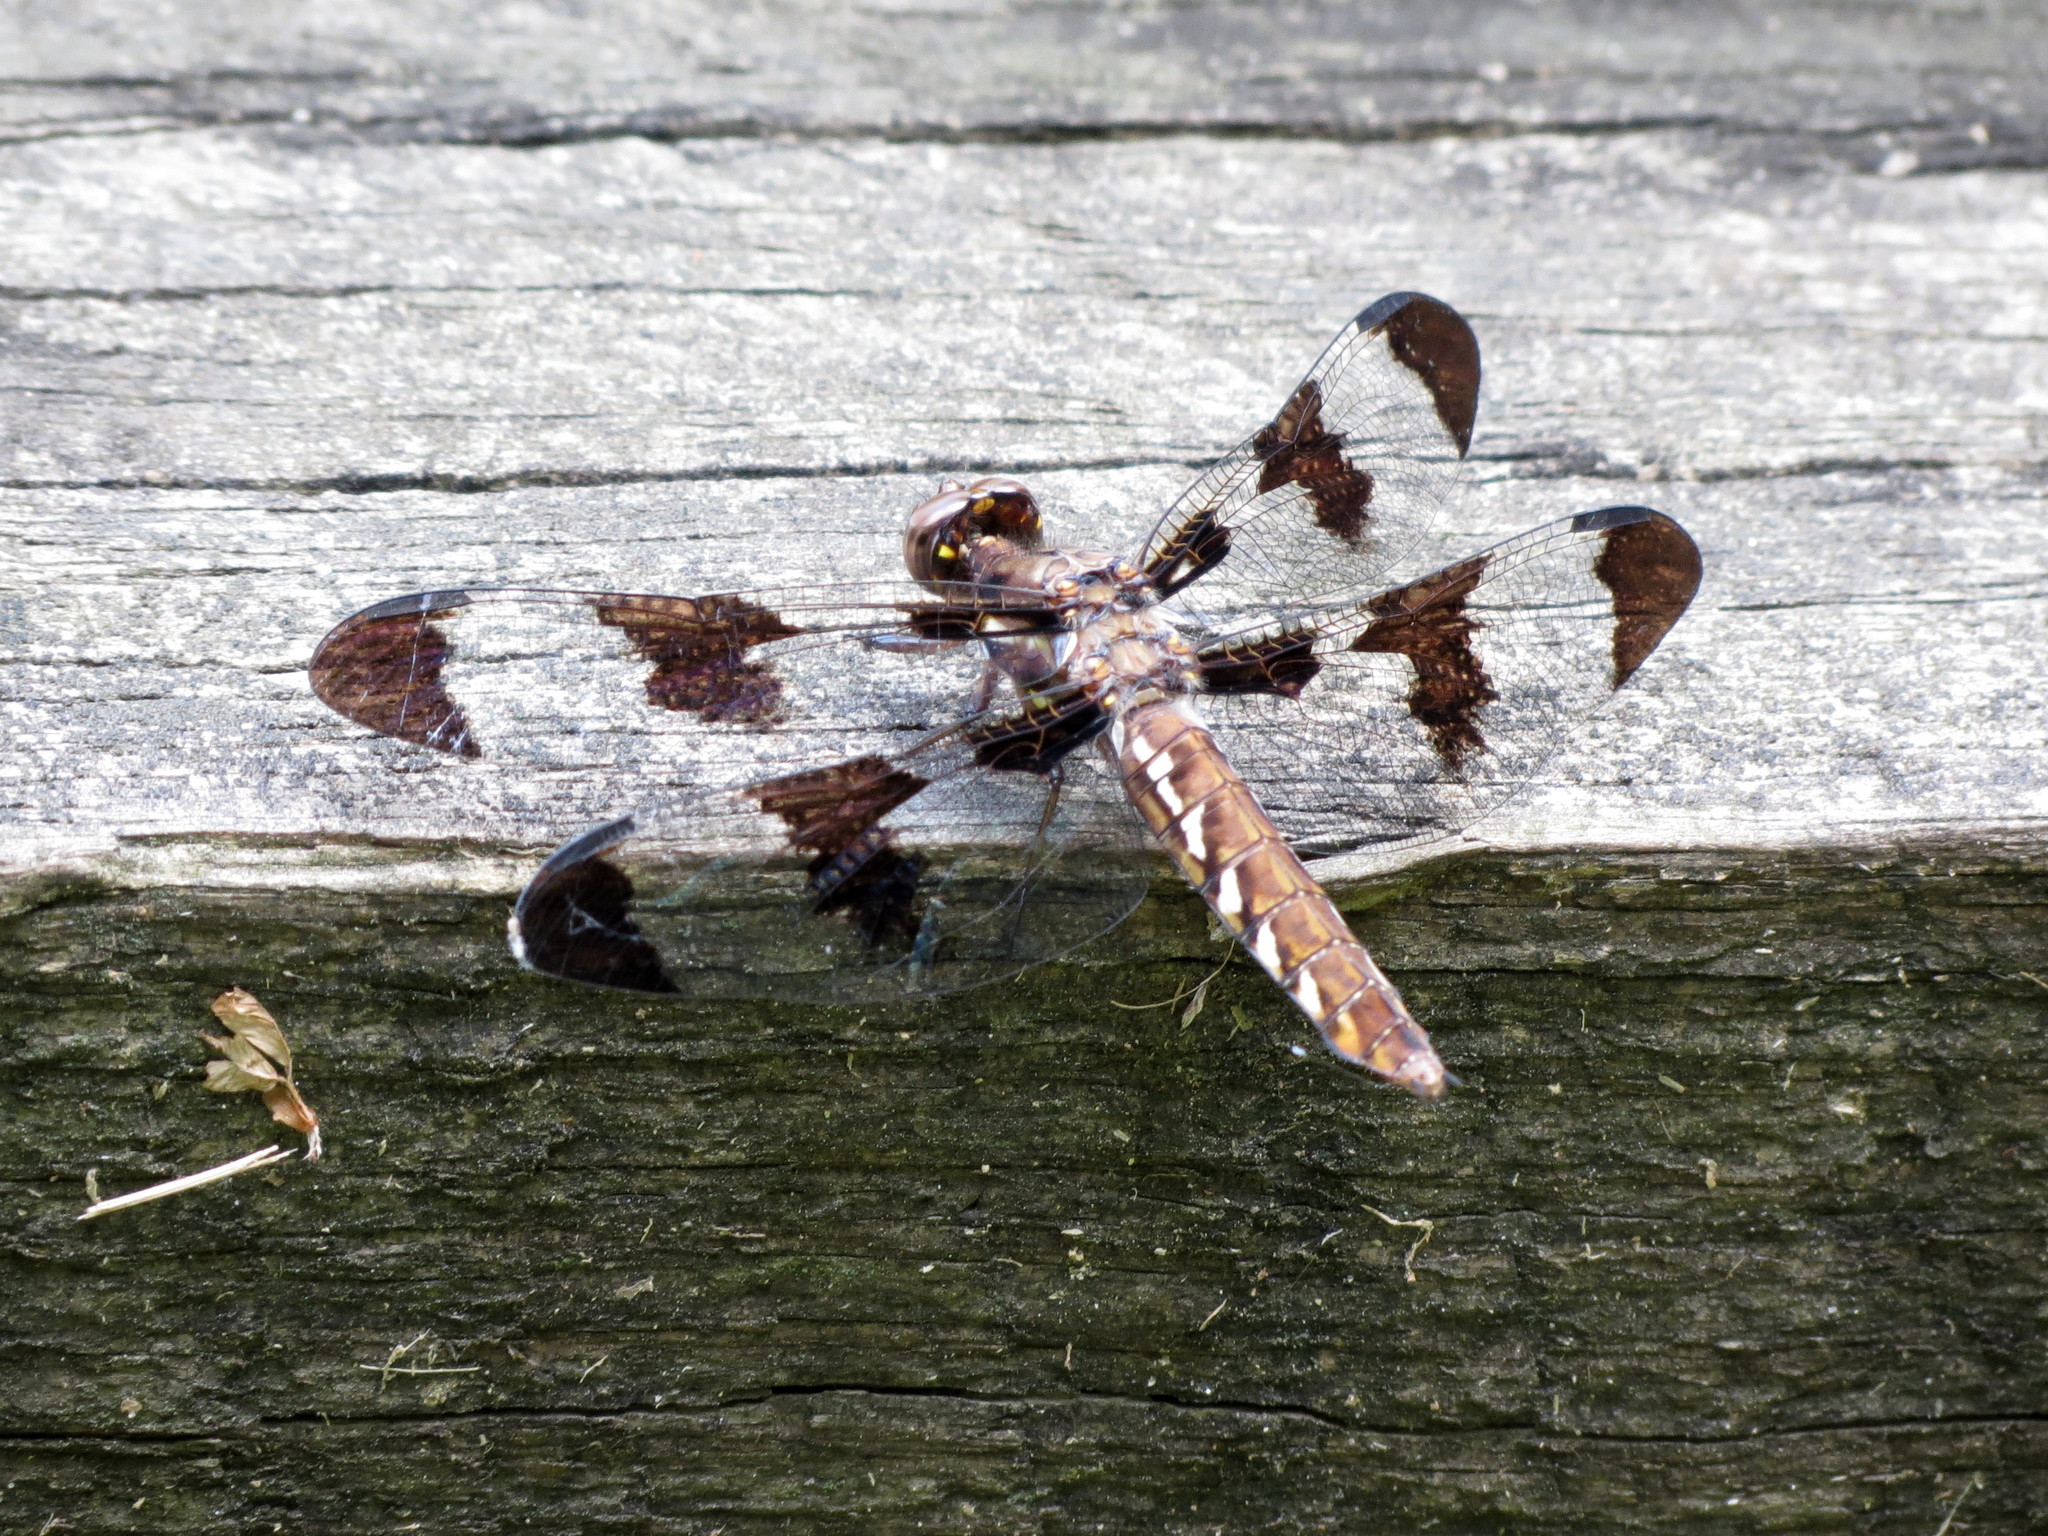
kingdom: Animalia
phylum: Arthropoda
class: Insecta
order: Odonata
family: Libellulidae
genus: Plathemis
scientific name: Plathemis lydia
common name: Common whitetail
